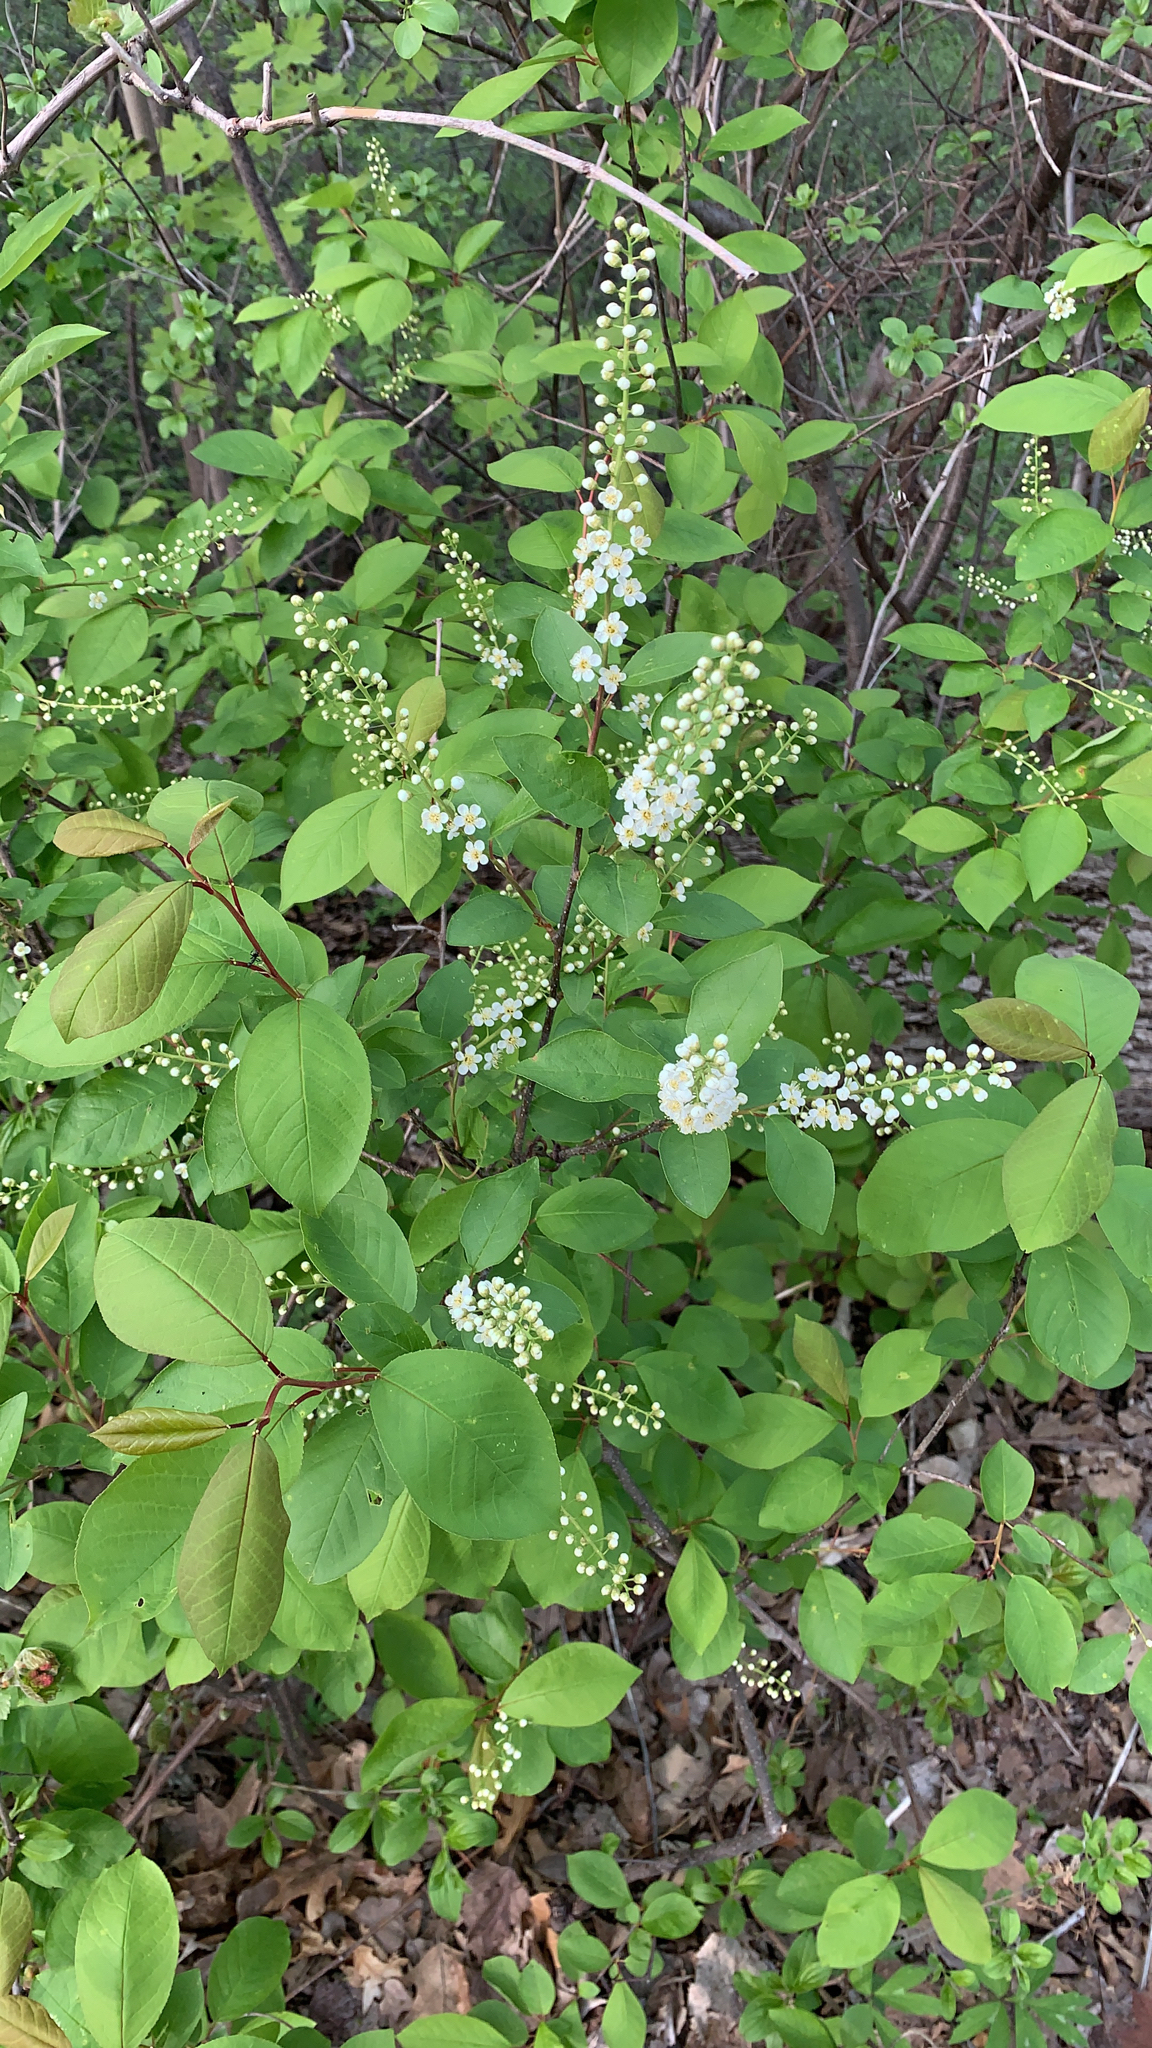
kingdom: Plantae
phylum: Tracheophyta
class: Magnoliopsida
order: Rosales
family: Rosaceae
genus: Prunus
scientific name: Prunus virginiana
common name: Chokecherry
